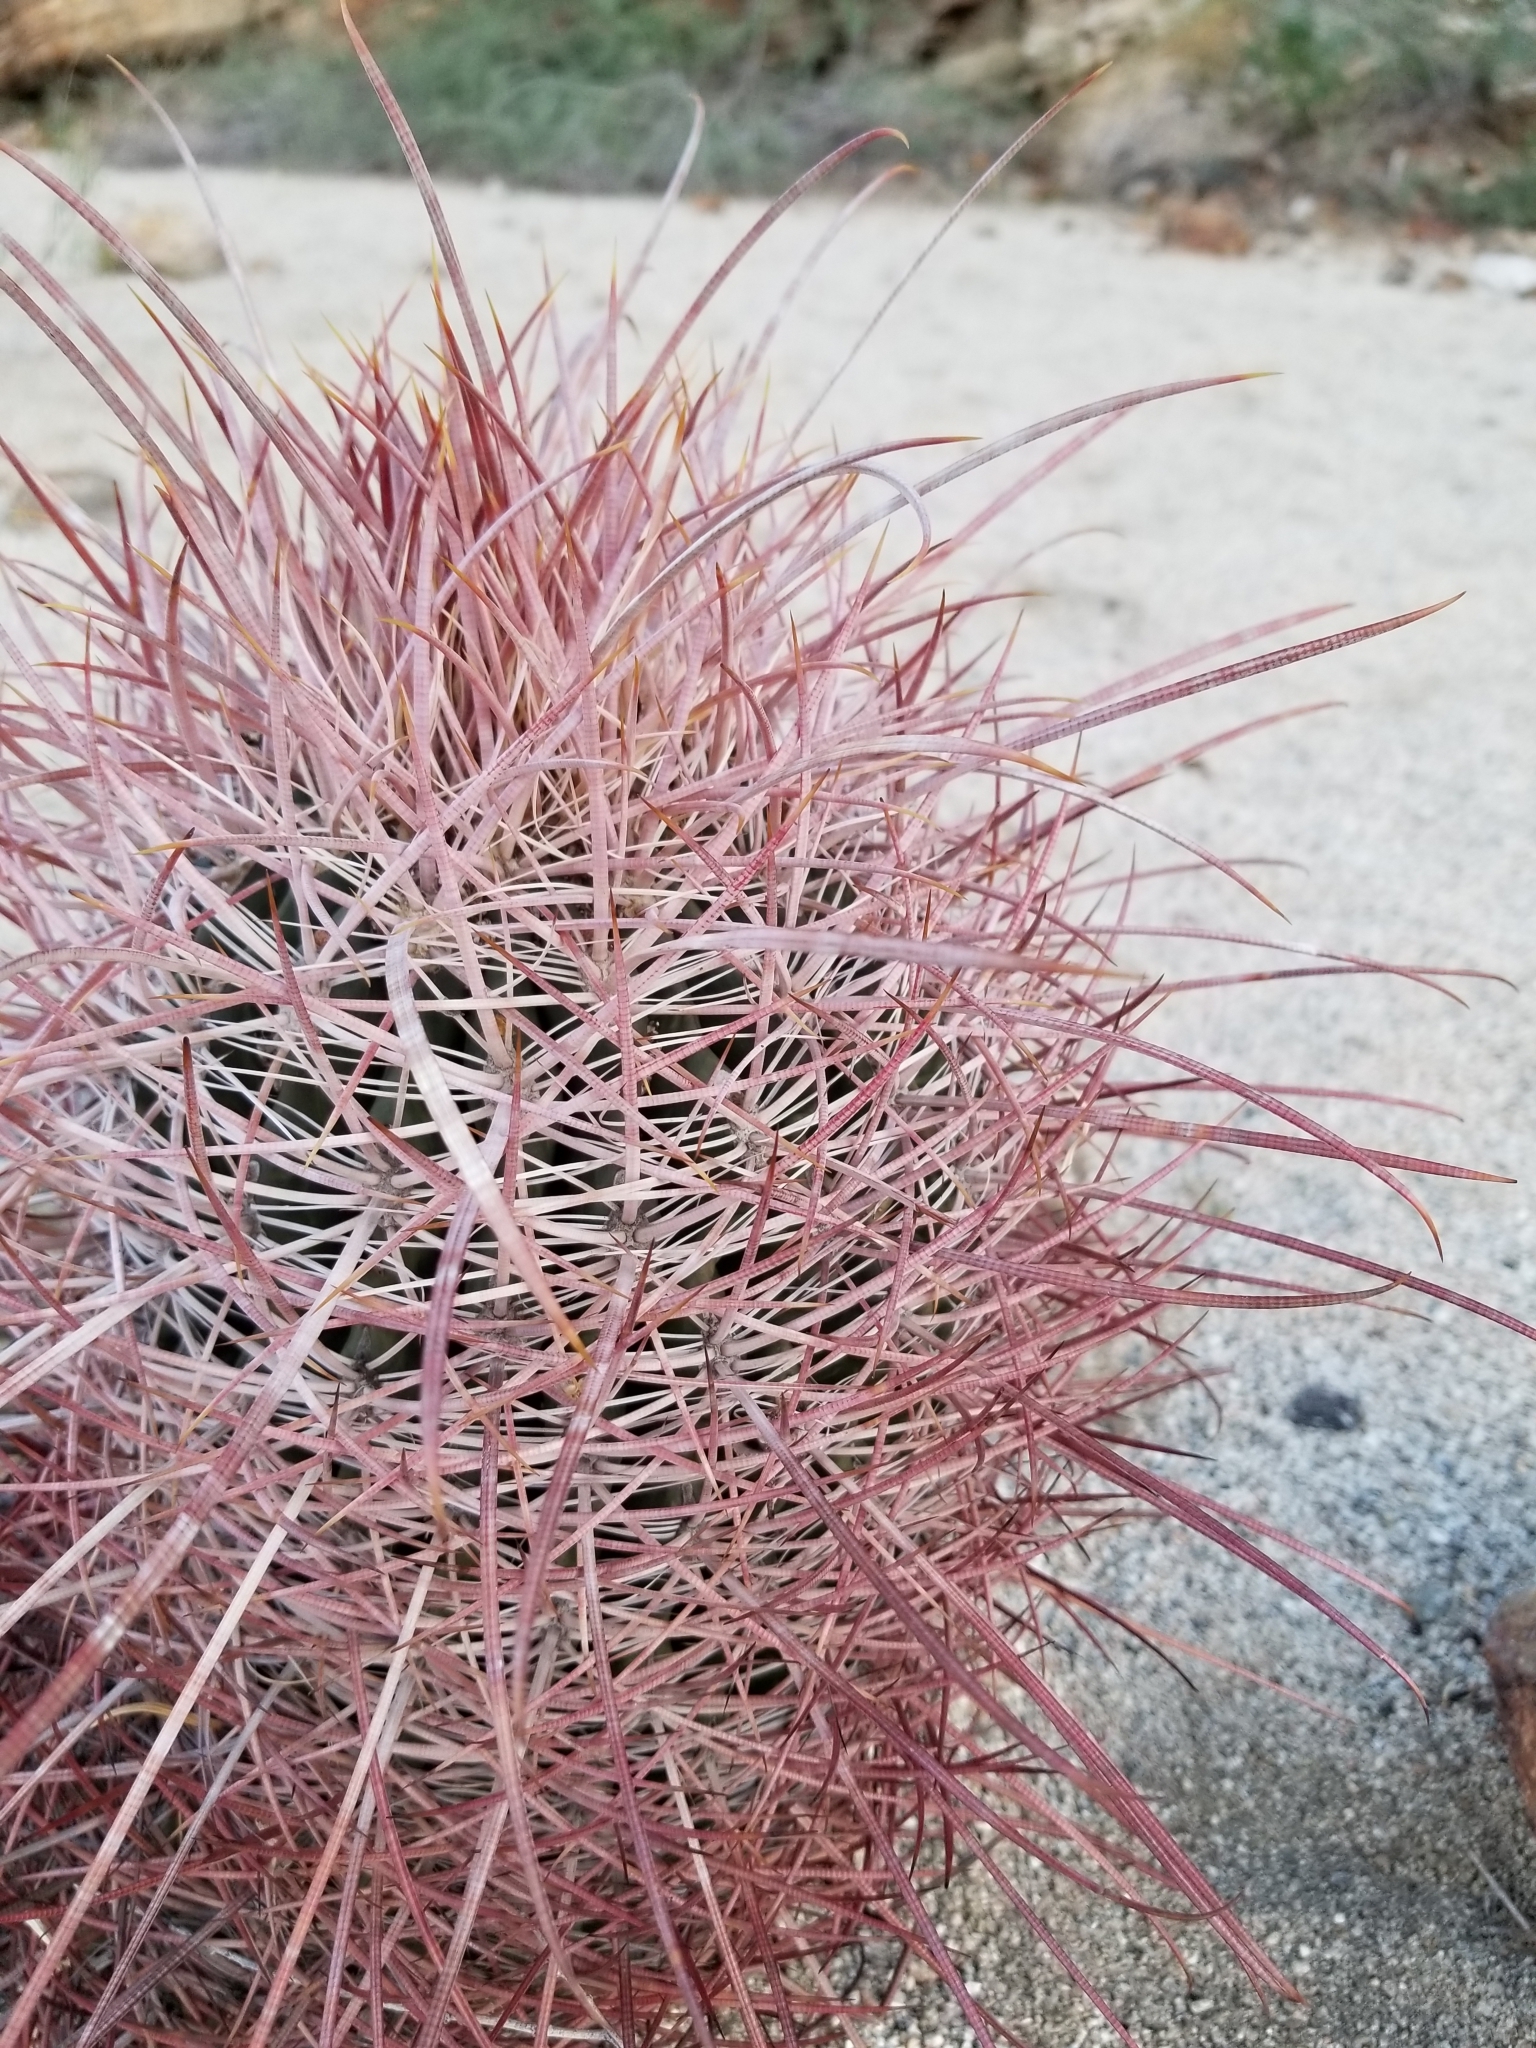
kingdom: Plantae
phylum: Tracheophyta
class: Magnoliopsida
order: Caryophyllales
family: Cactaceae
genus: Ferocactus
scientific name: Ferocactus cylindraceus
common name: California barrel cactus
